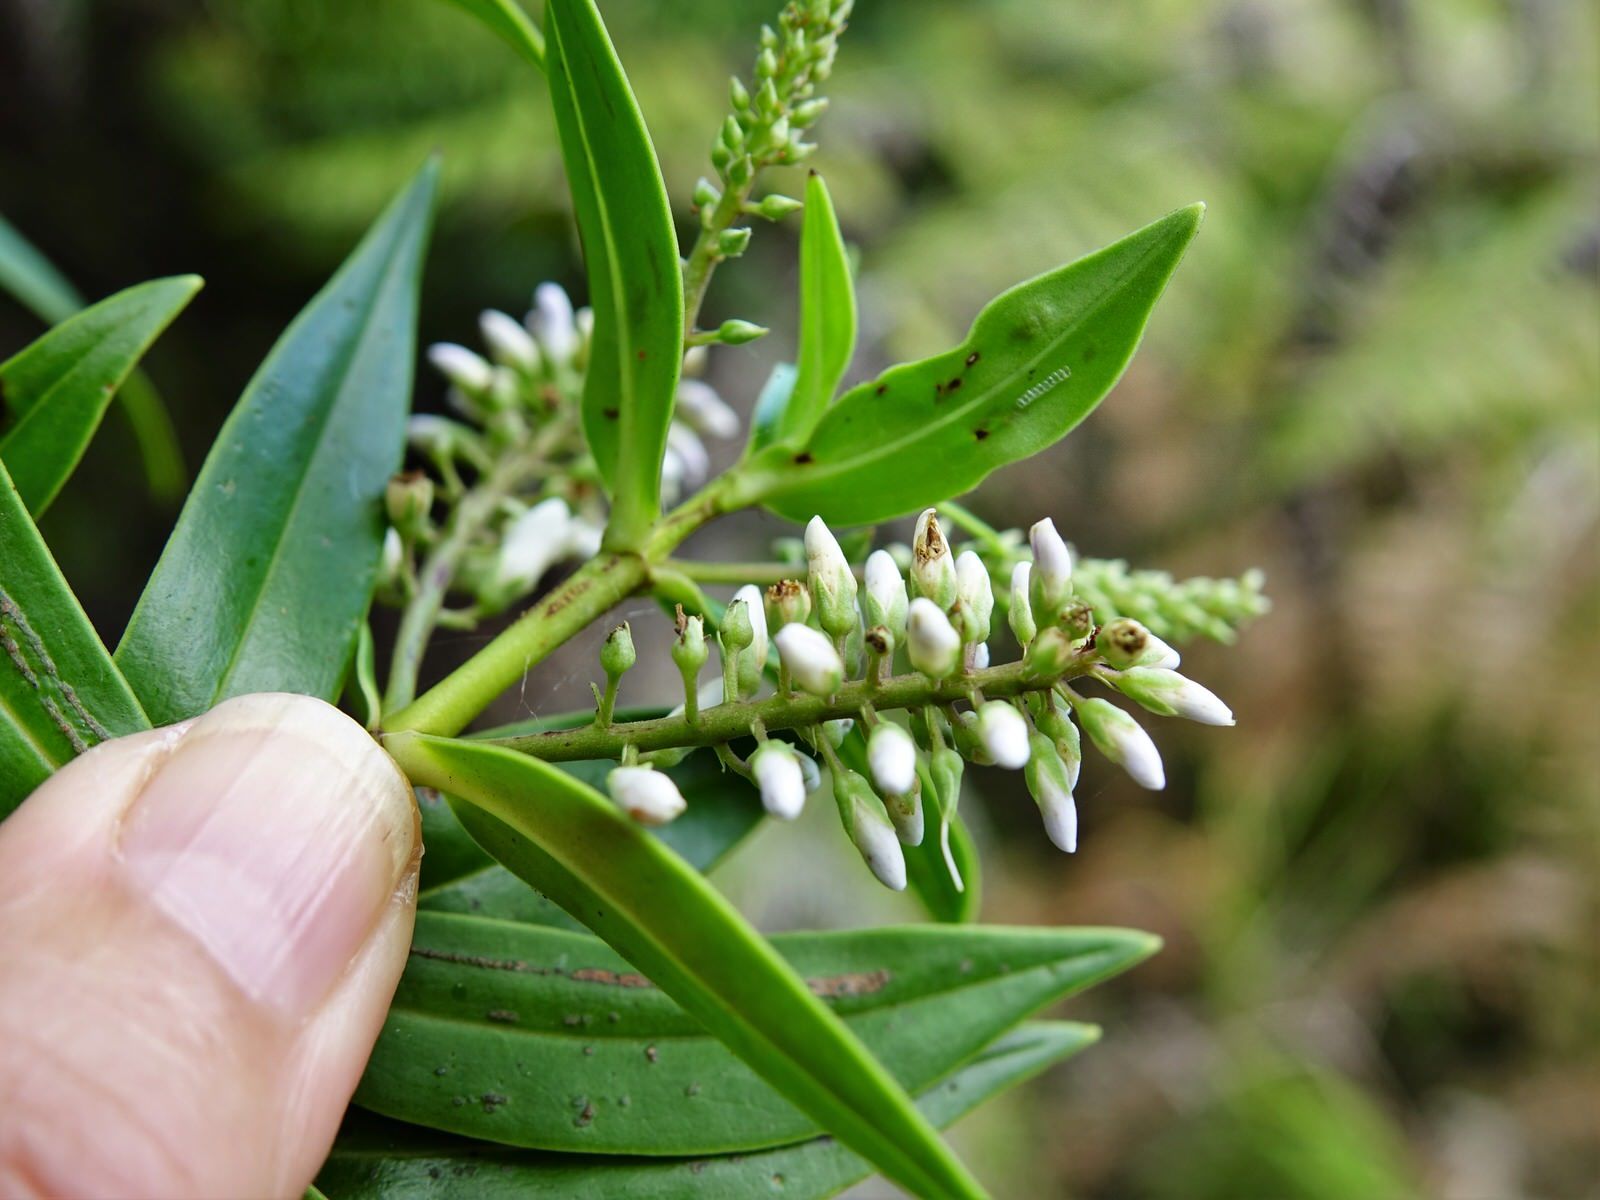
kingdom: Plantae
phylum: Tracheophyta
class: Magnoliopsida
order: Lamiales
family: Plantaginaceae
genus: Veronica
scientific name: Veronica macrocarpa
